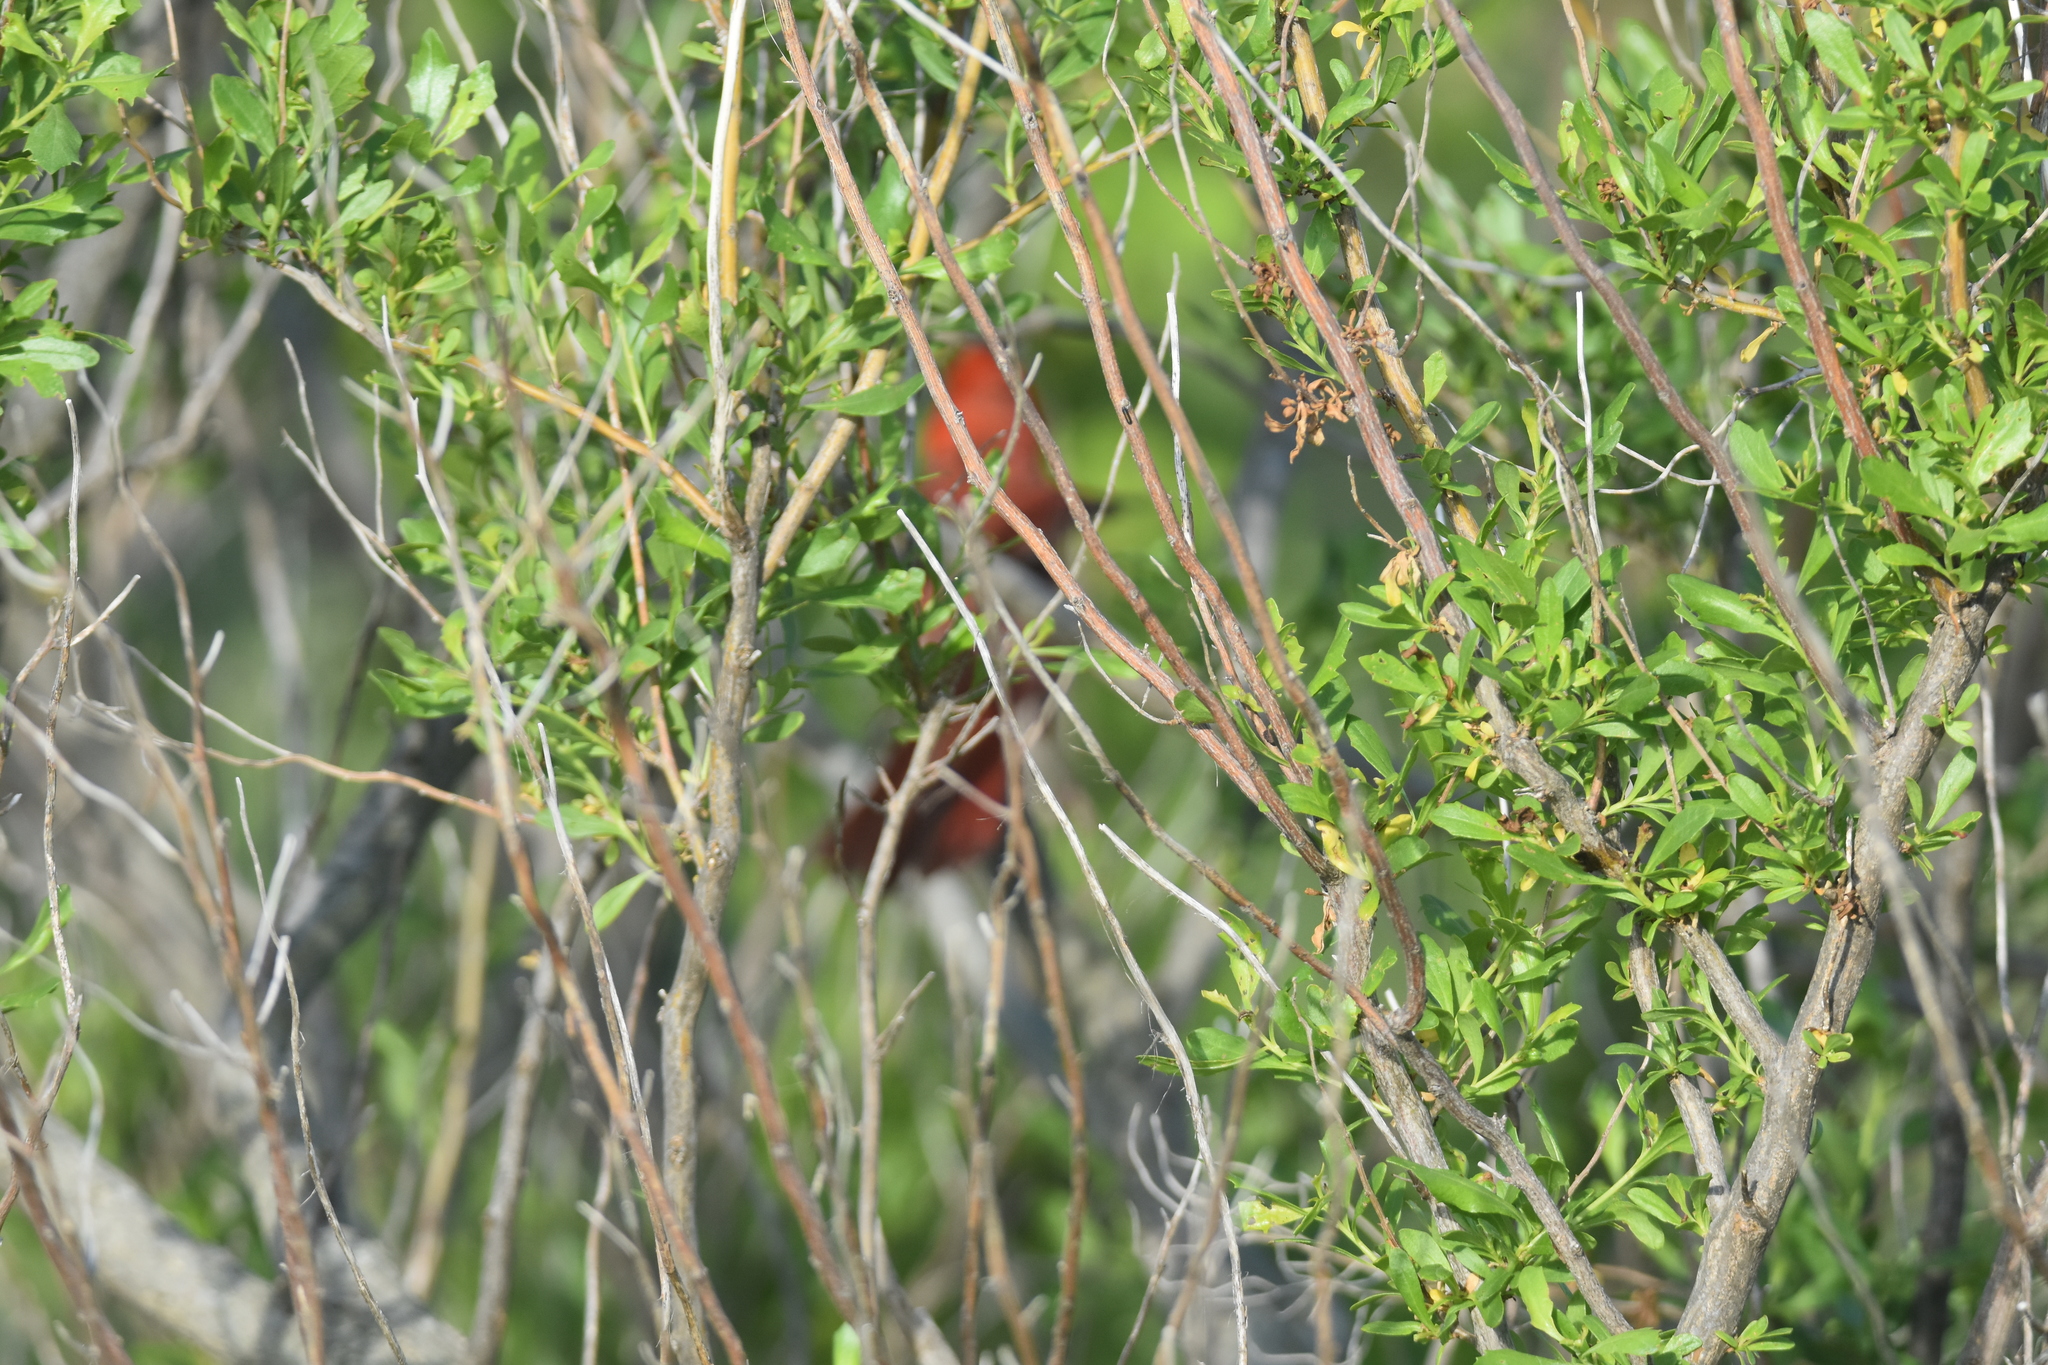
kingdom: Animalia
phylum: Chordata
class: Aves
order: Passeriformes
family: Cardinalidae
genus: Cardinalis
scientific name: Cardinalis cardinalis
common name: Northern cardinal
